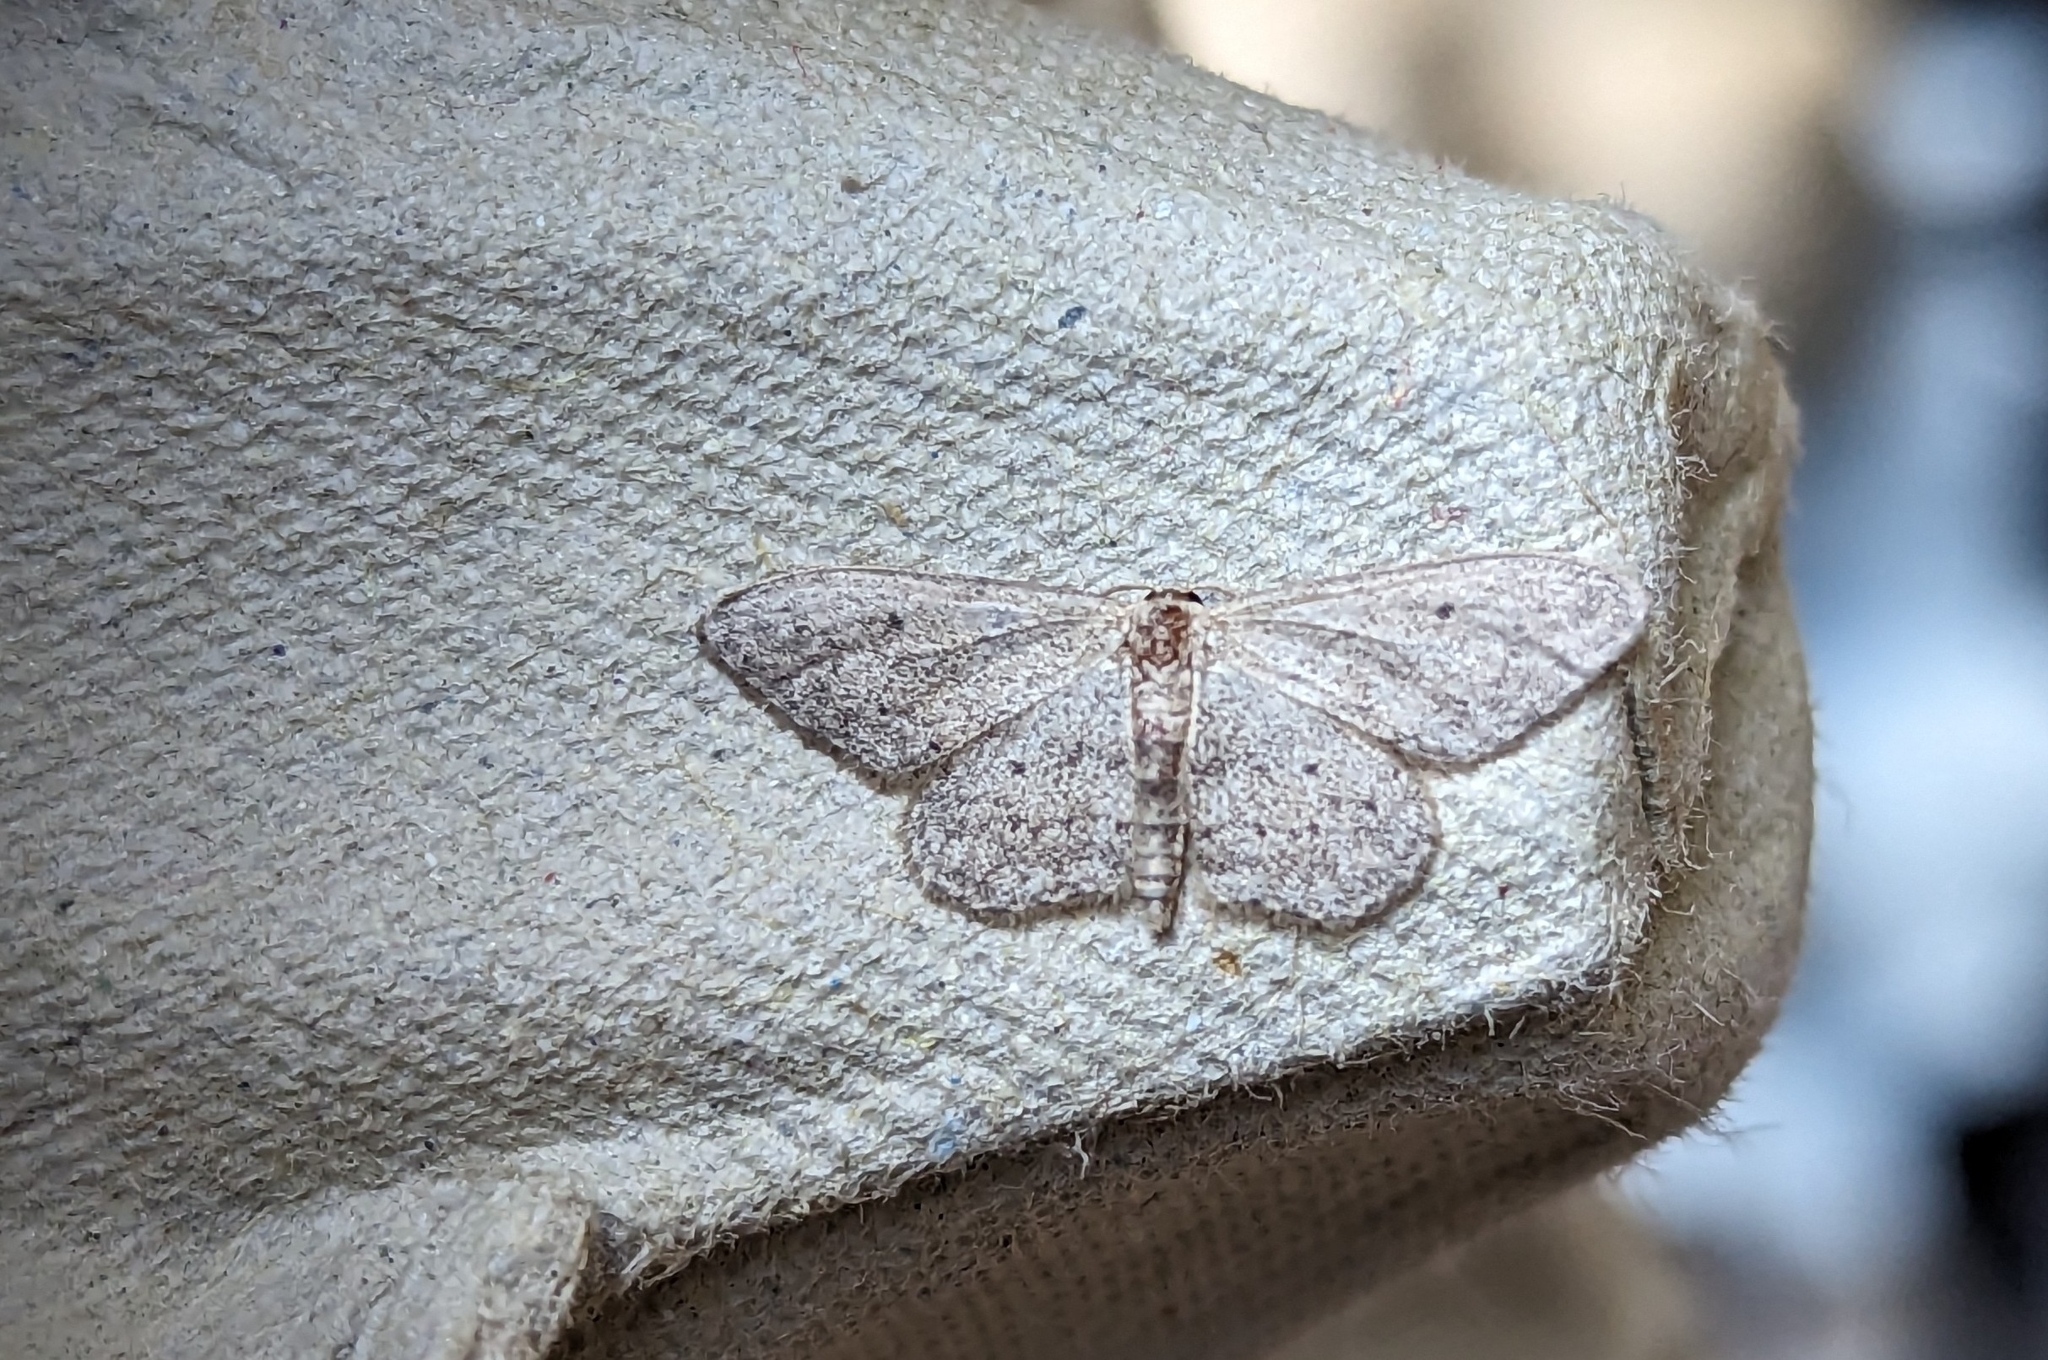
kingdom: Animalia
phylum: Arthropoda
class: Insecta
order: Lepidoptera
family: Geometridae
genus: Idaea
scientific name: Idaea seriata
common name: Small dusty wave
